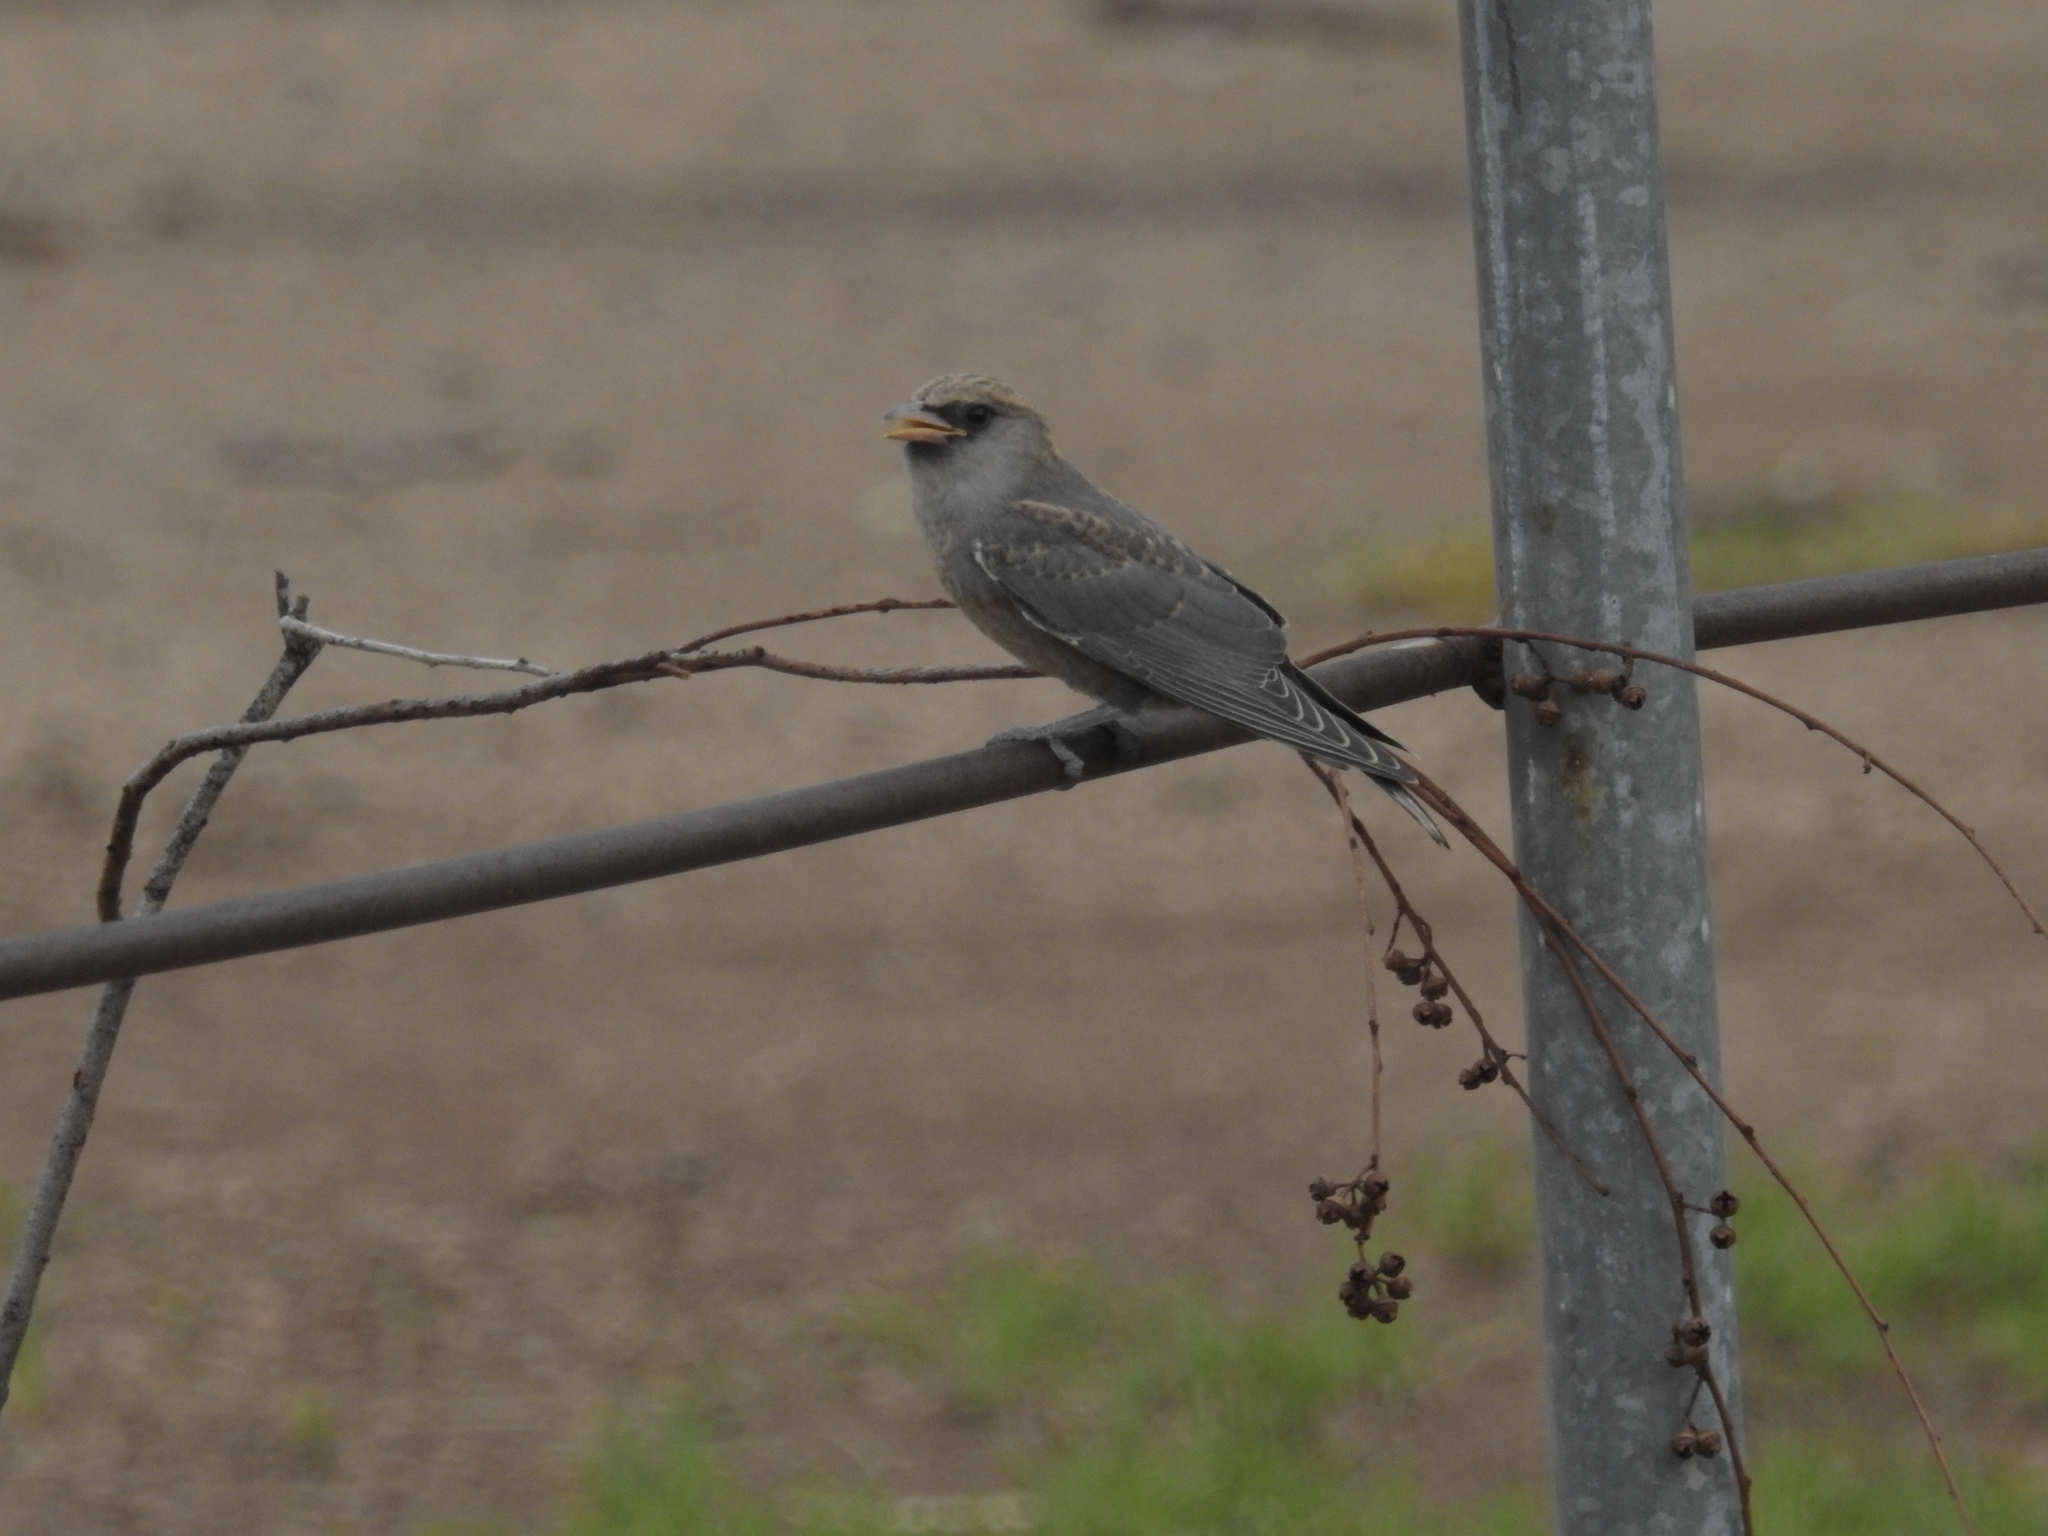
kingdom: Animalia
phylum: Chordata
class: Aves
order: Passeriformes
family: Artamidae
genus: Artamus
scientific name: Artamus cinereus
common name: Black-faced woodswallow
